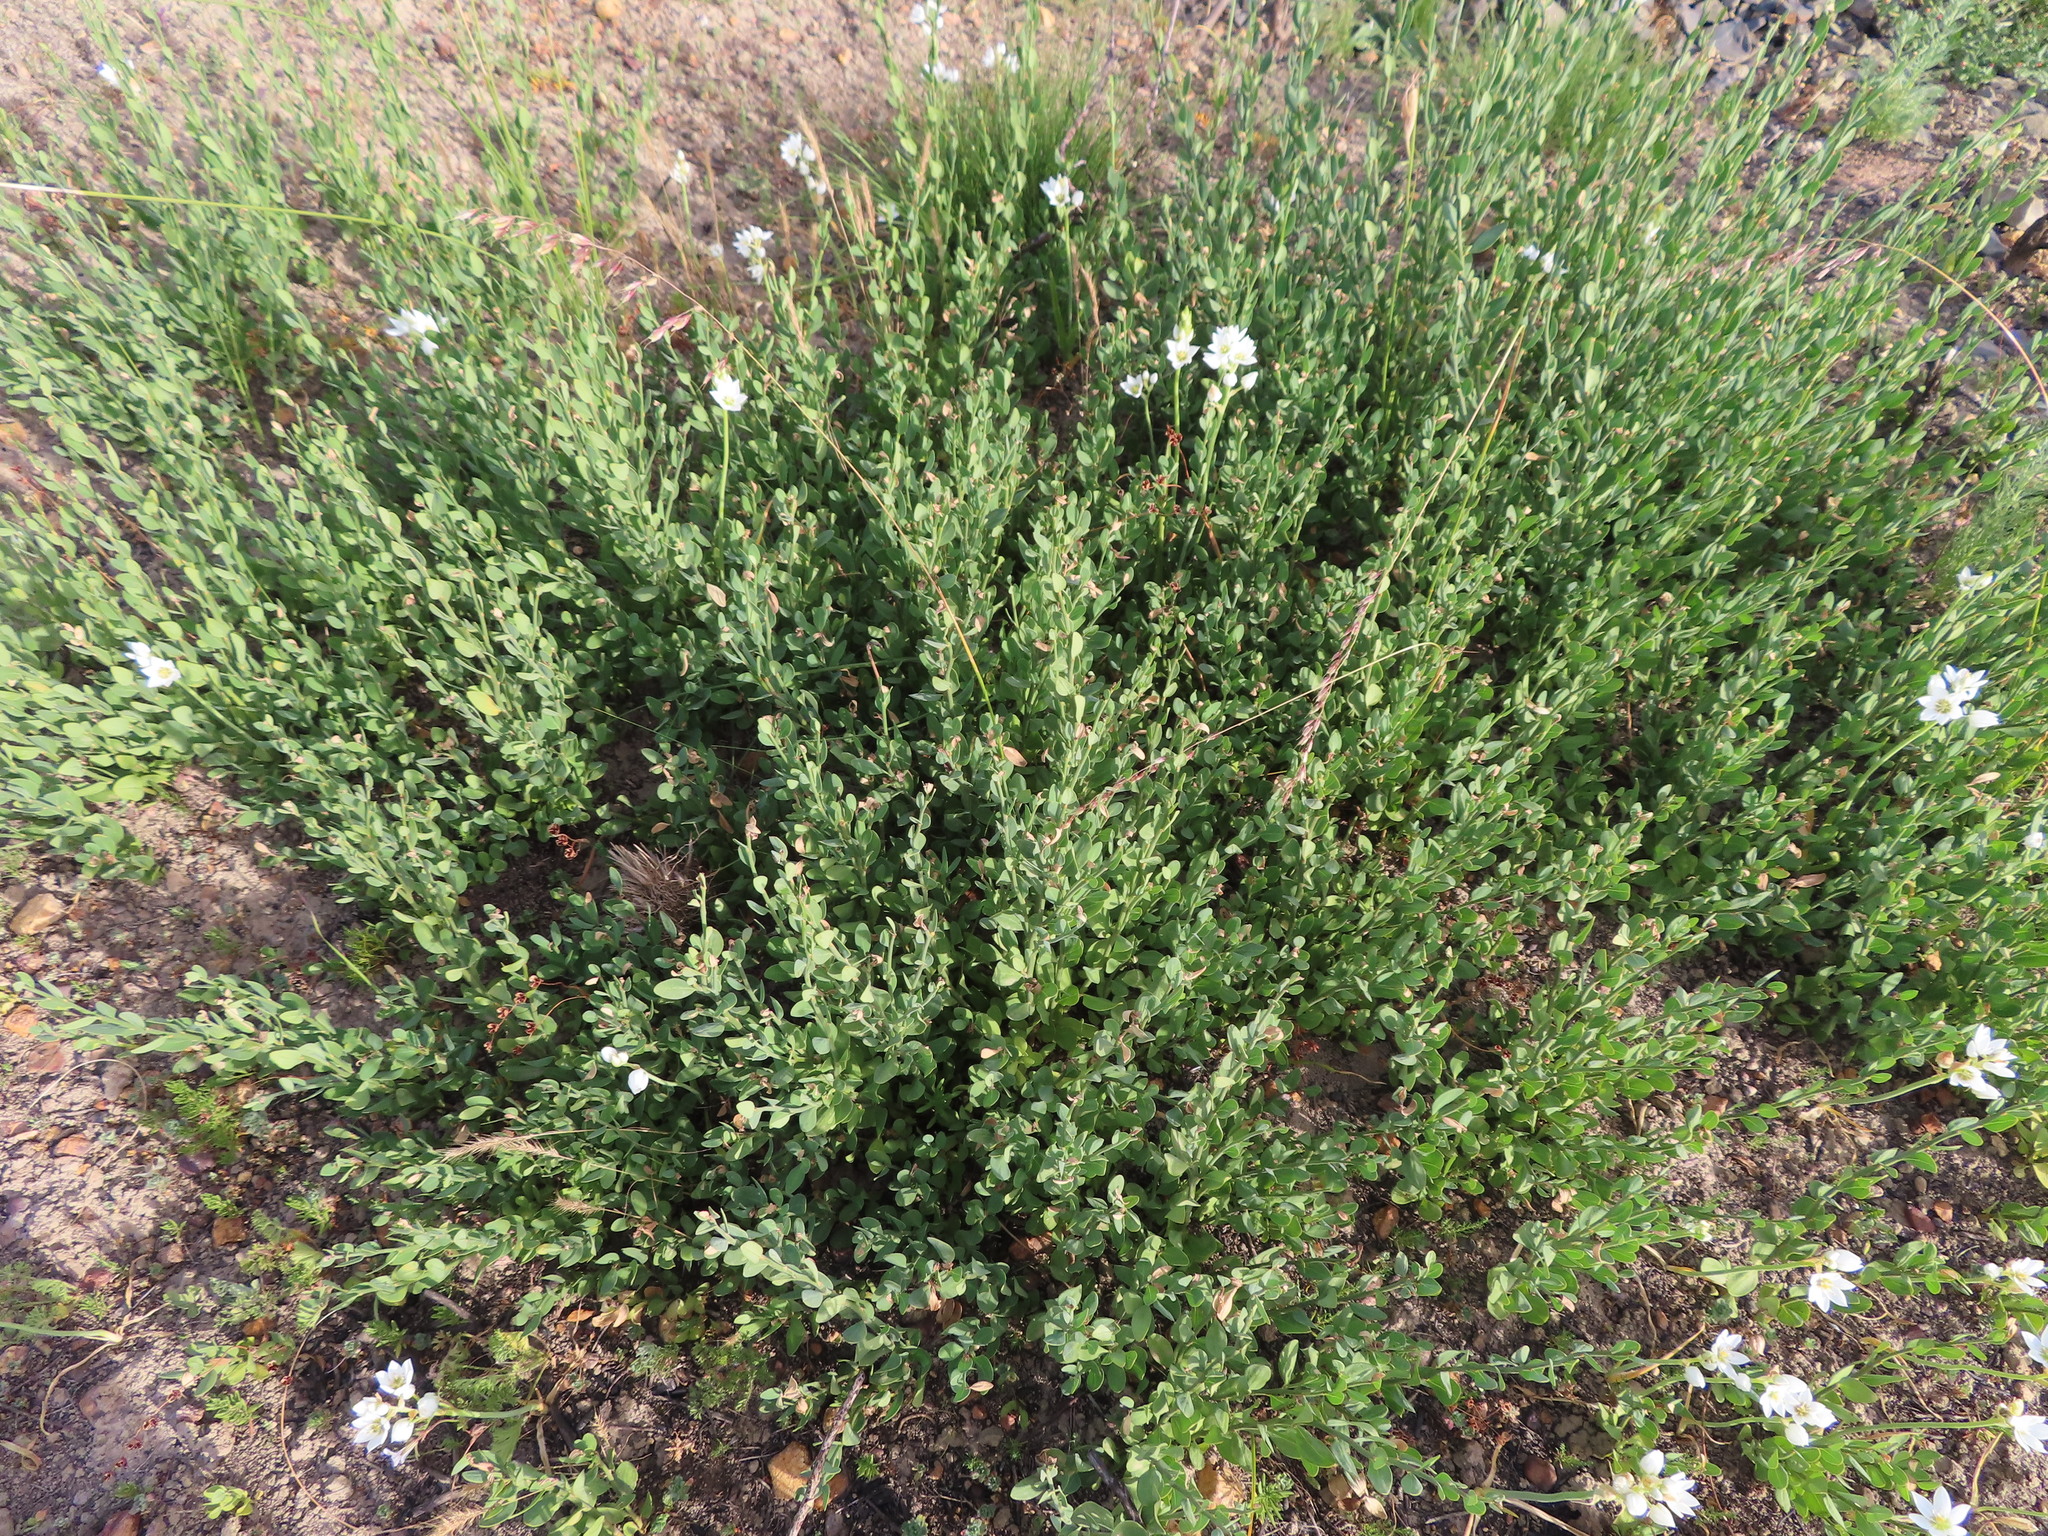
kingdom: Plantae
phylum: Tracheophyta
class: Magnoliopsida
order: Solanales
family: Montiniaceae
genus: Montinia
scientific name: Montinia caryophyllacea
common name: Wild clove-bush
